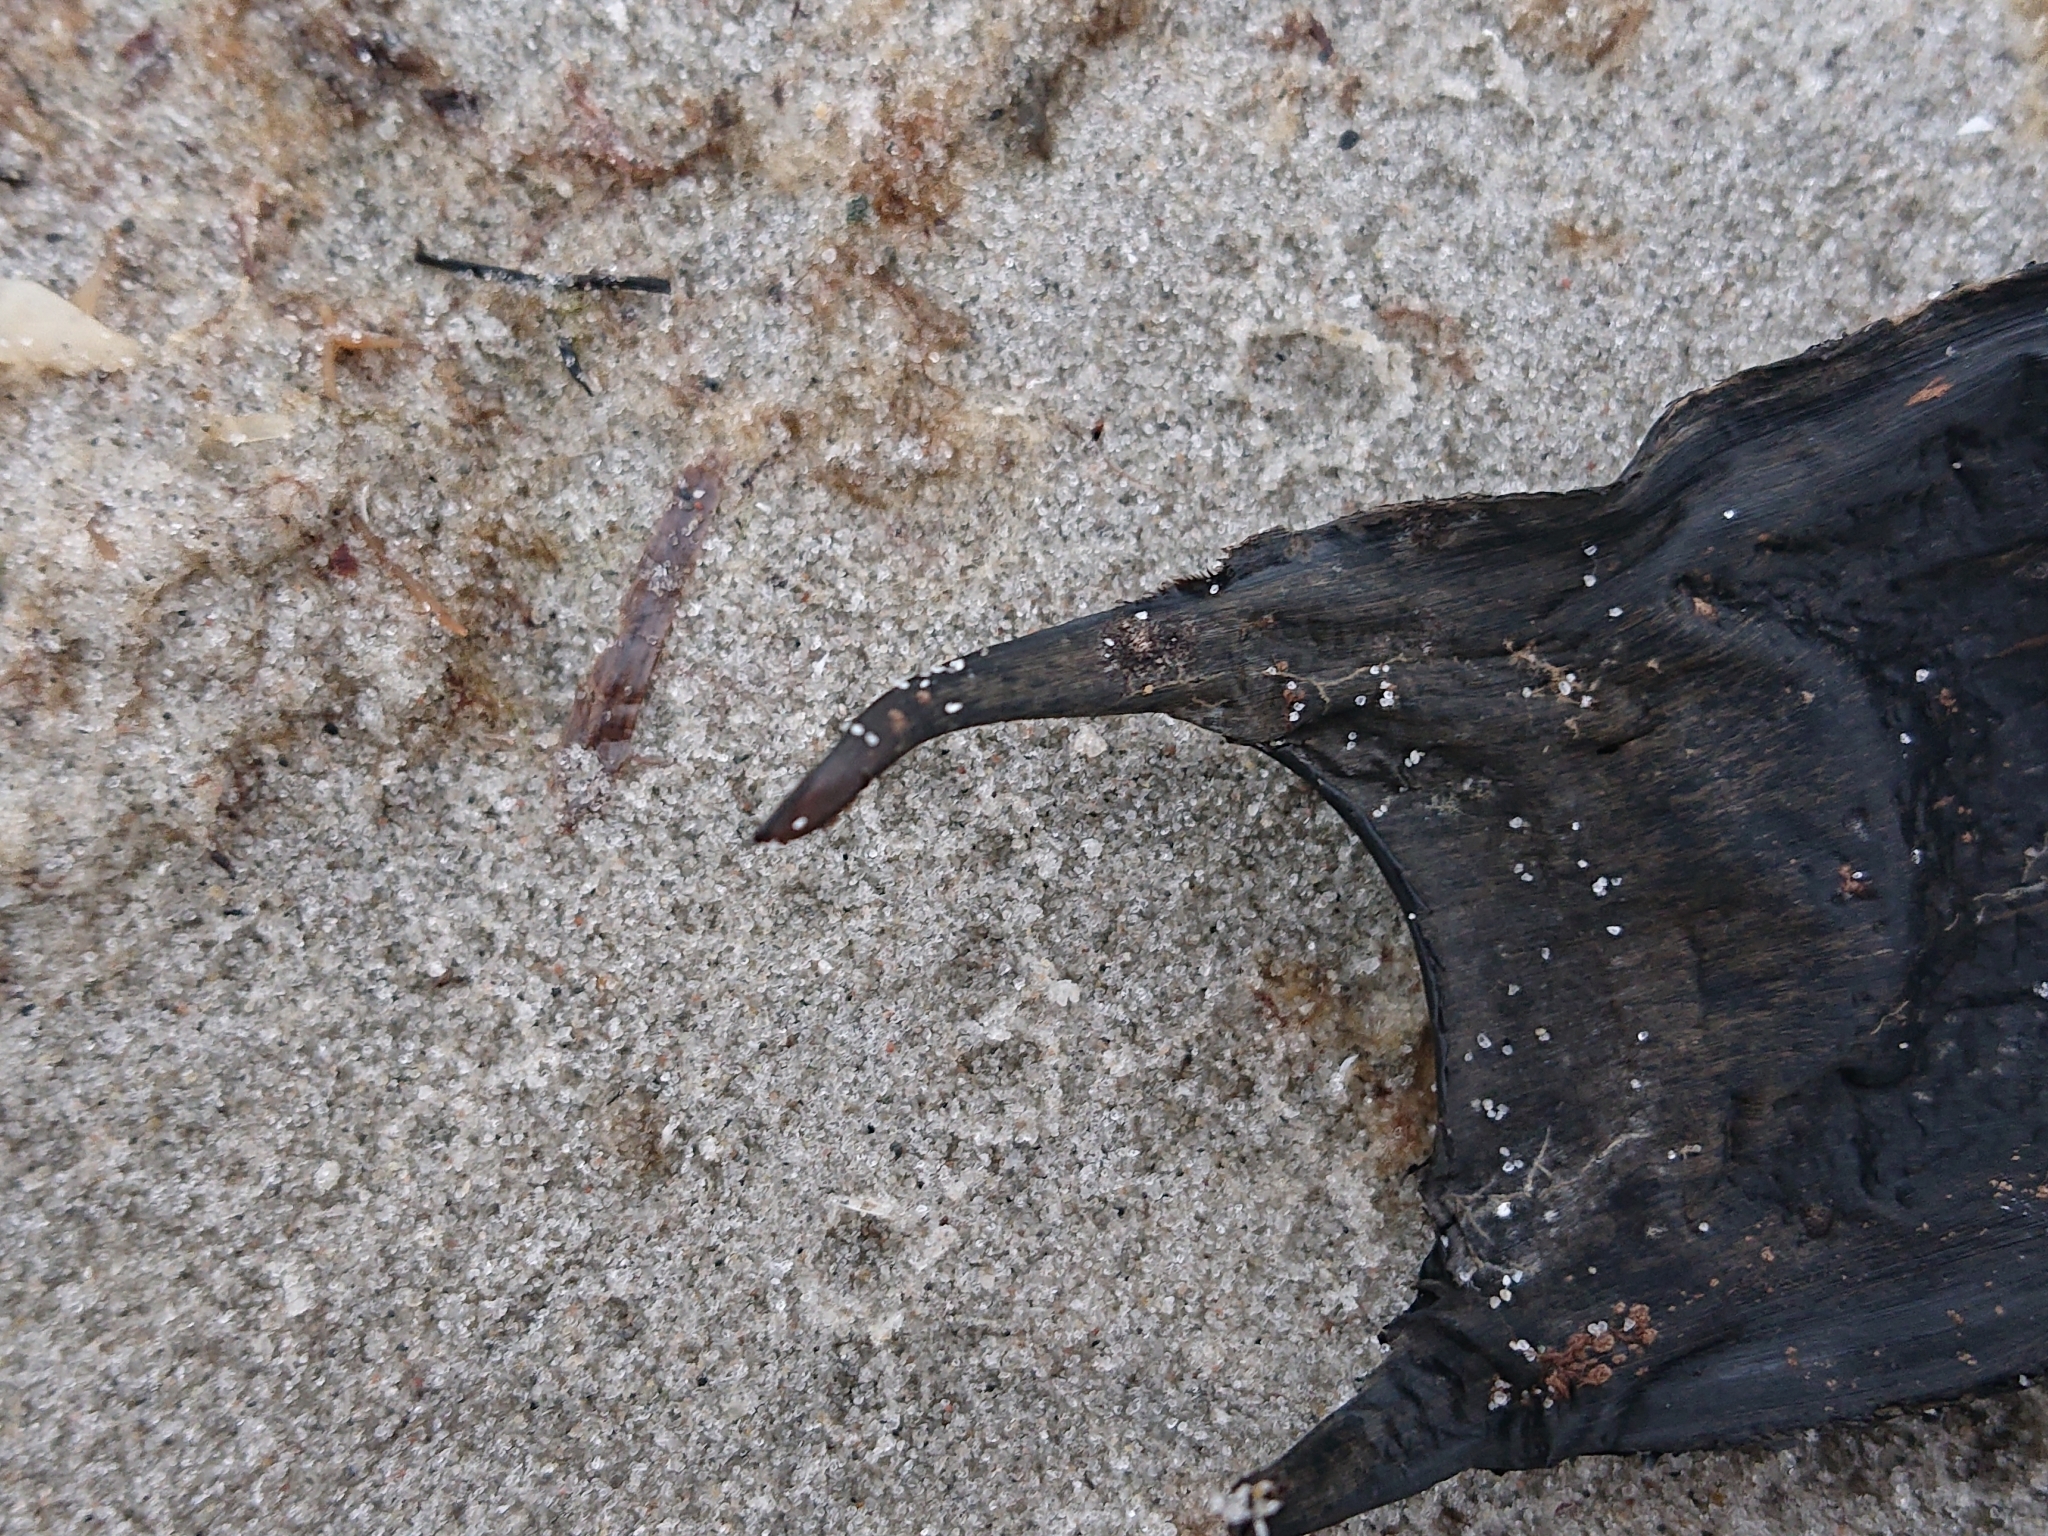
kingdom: Animalia
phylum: Chordata
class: Elasmobranchii
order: Rajiformes
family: Rajidae
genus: Raja
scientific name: Raja clavata
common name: Thornback ray
